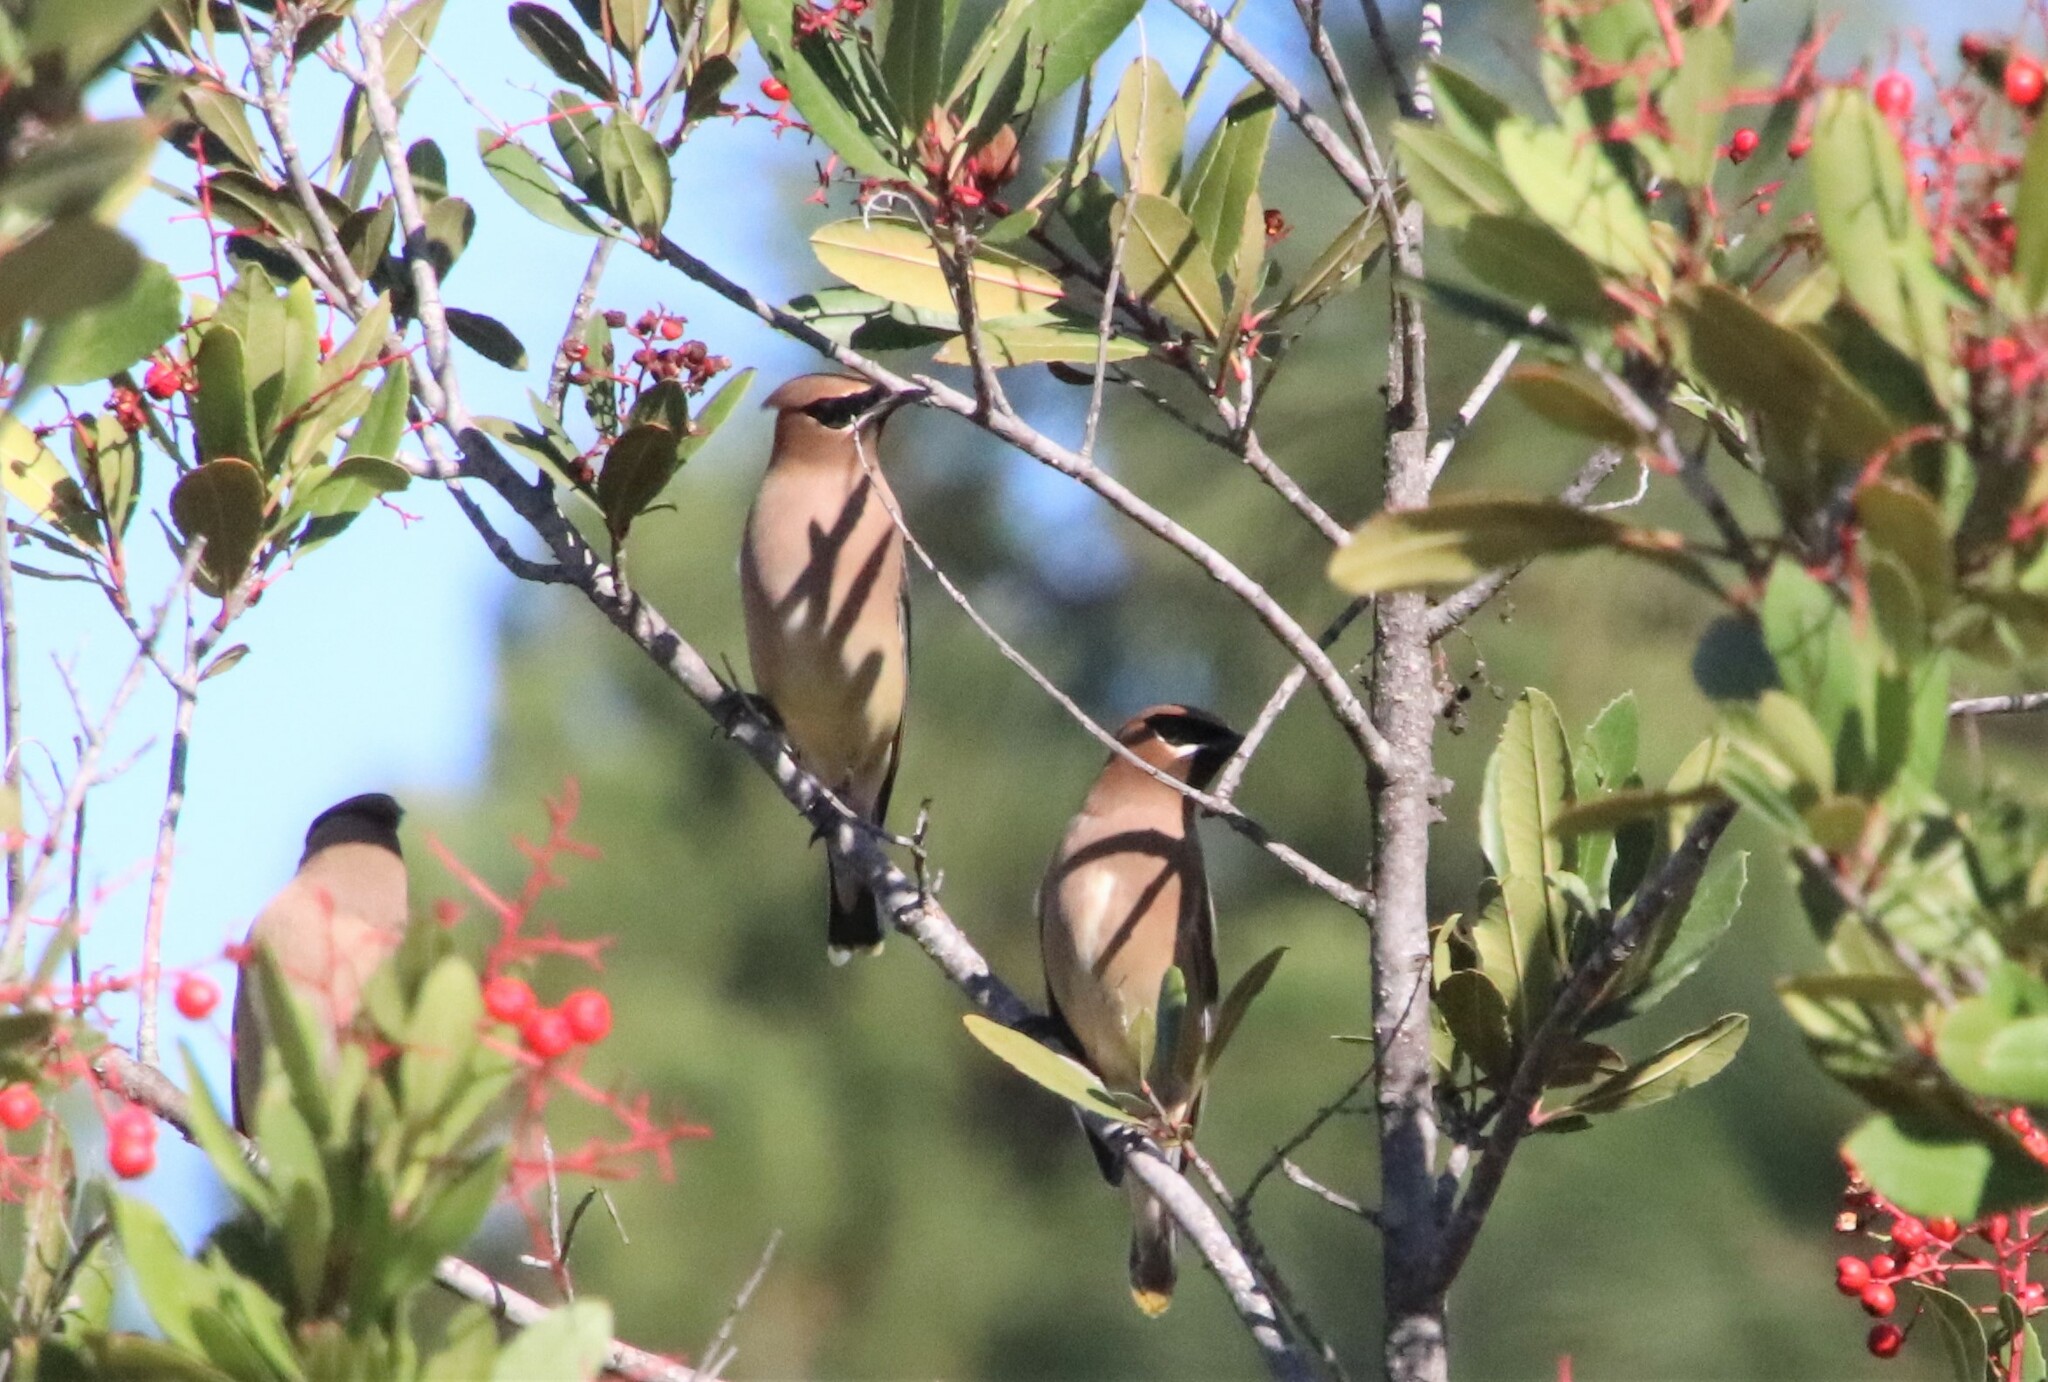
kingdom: Animalia
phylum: Chordata
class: Aves
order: Passeriformes
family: Bombycillidae
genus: Bombycilla
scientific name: Bombycilla cedrorum
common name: Cedar waxwing
